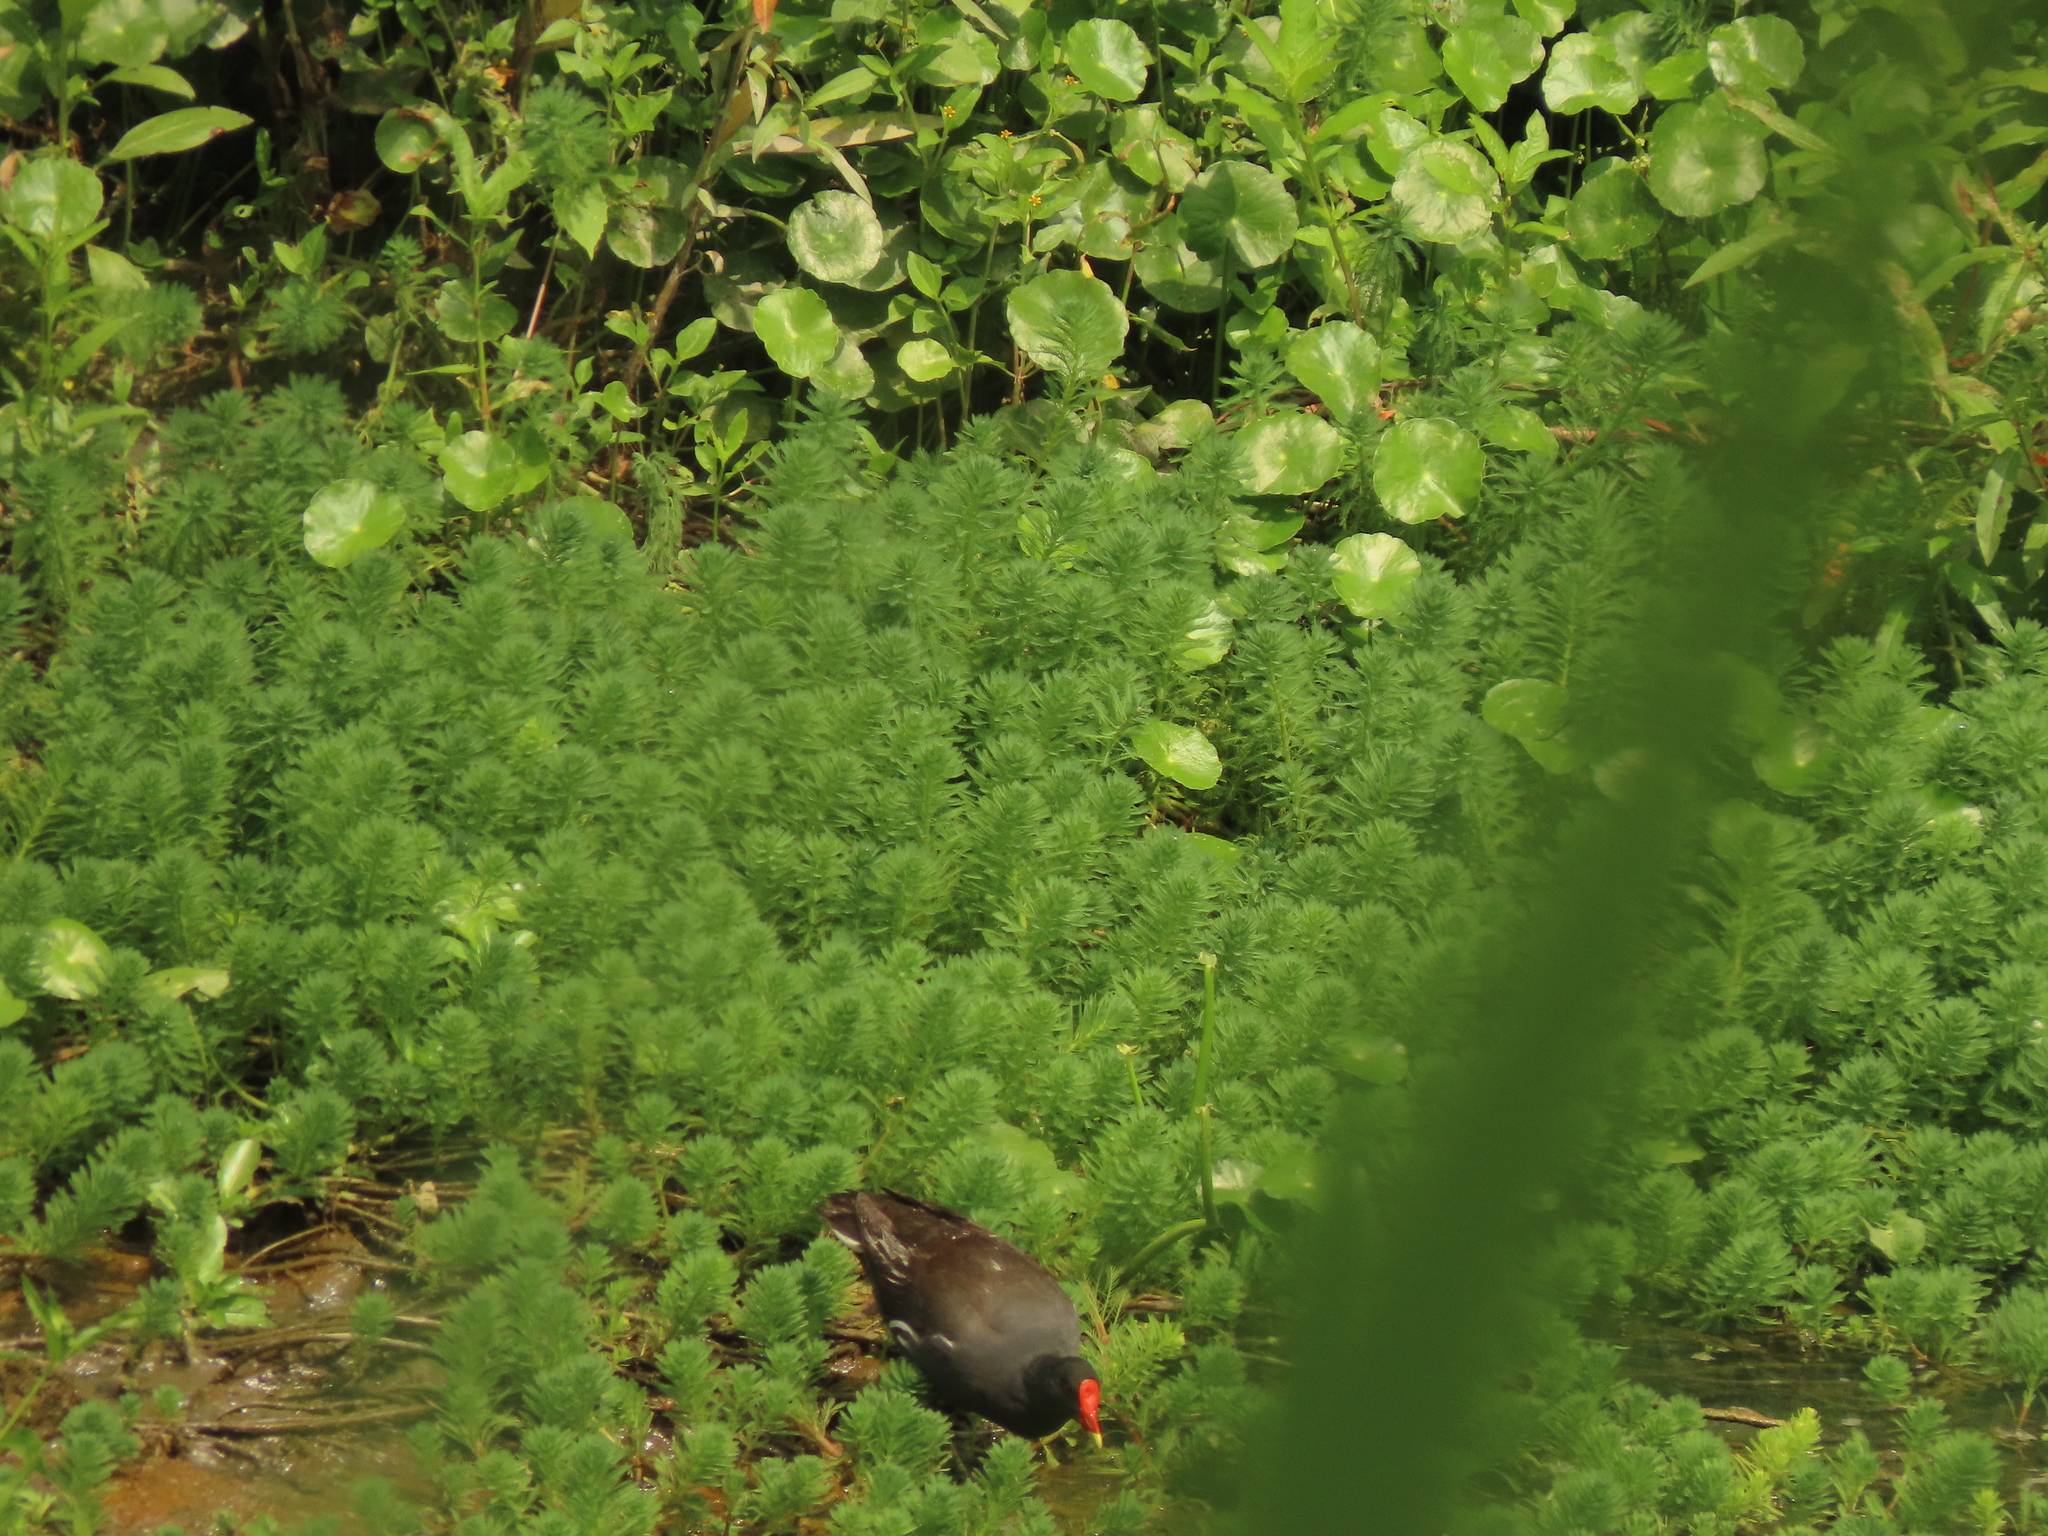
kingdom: Animalia
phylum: Chordata
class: Aves
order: Gruiformes
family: Rallidae
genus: Gallinula
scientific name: Gallinula chloropus
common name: Common moorhen
